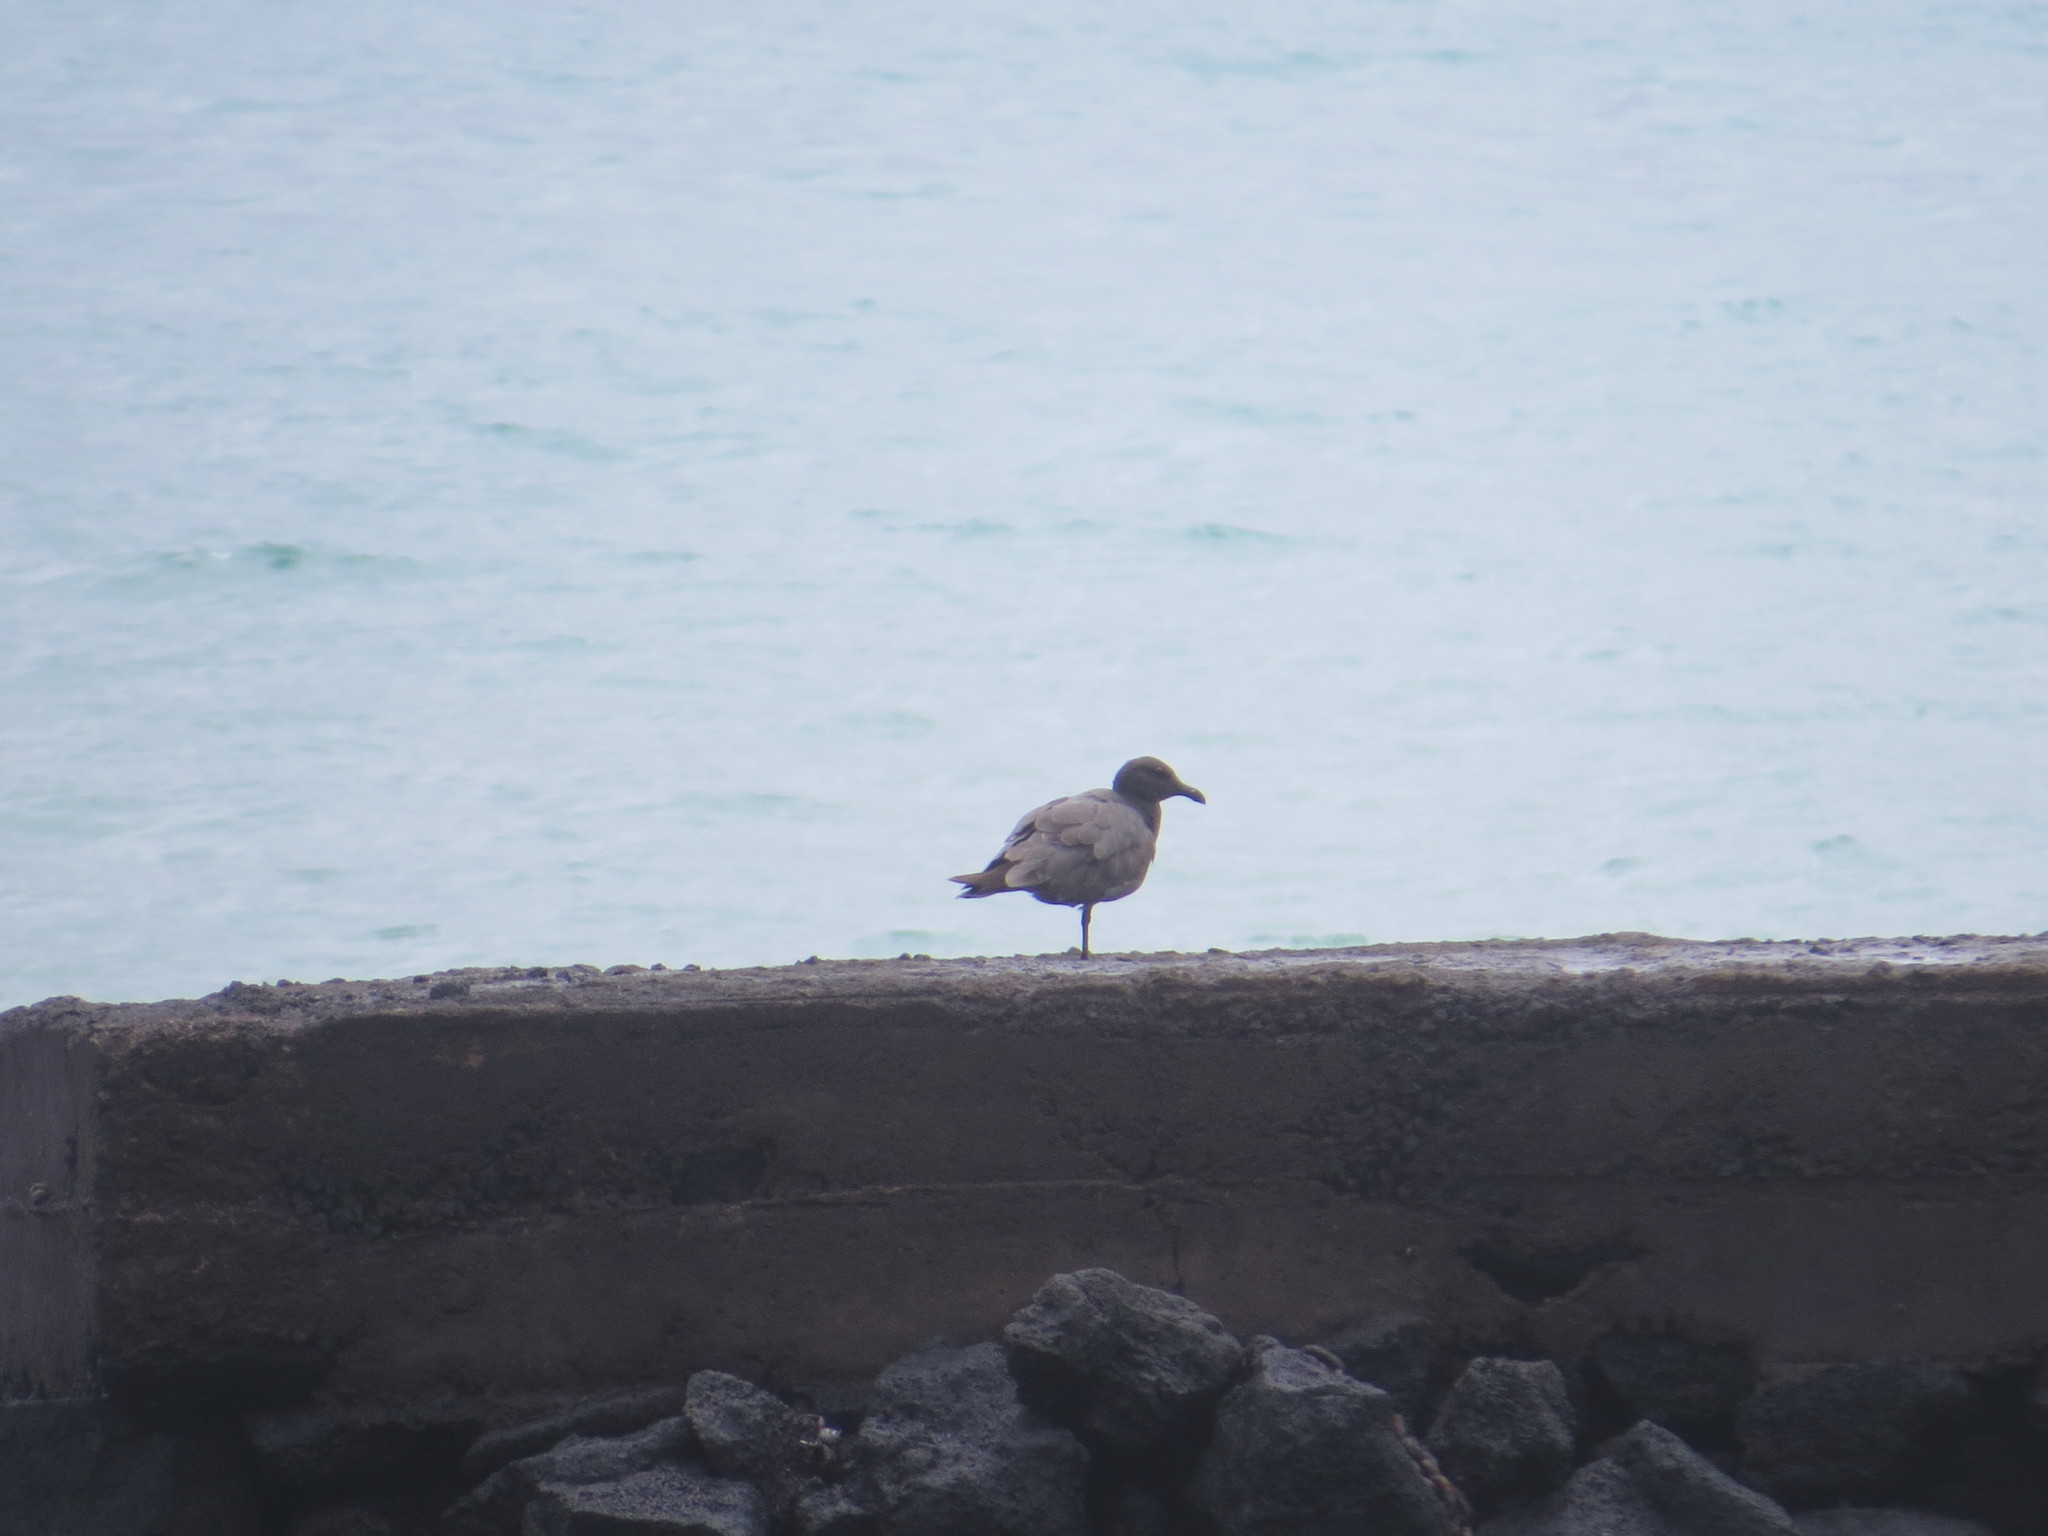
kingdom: Animalia
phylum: Chordata
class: Aves
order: Charadriiformes
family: Laridae
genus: Leucophaeus
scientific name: Leucophaeus fuliginosus
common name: Lava gull
